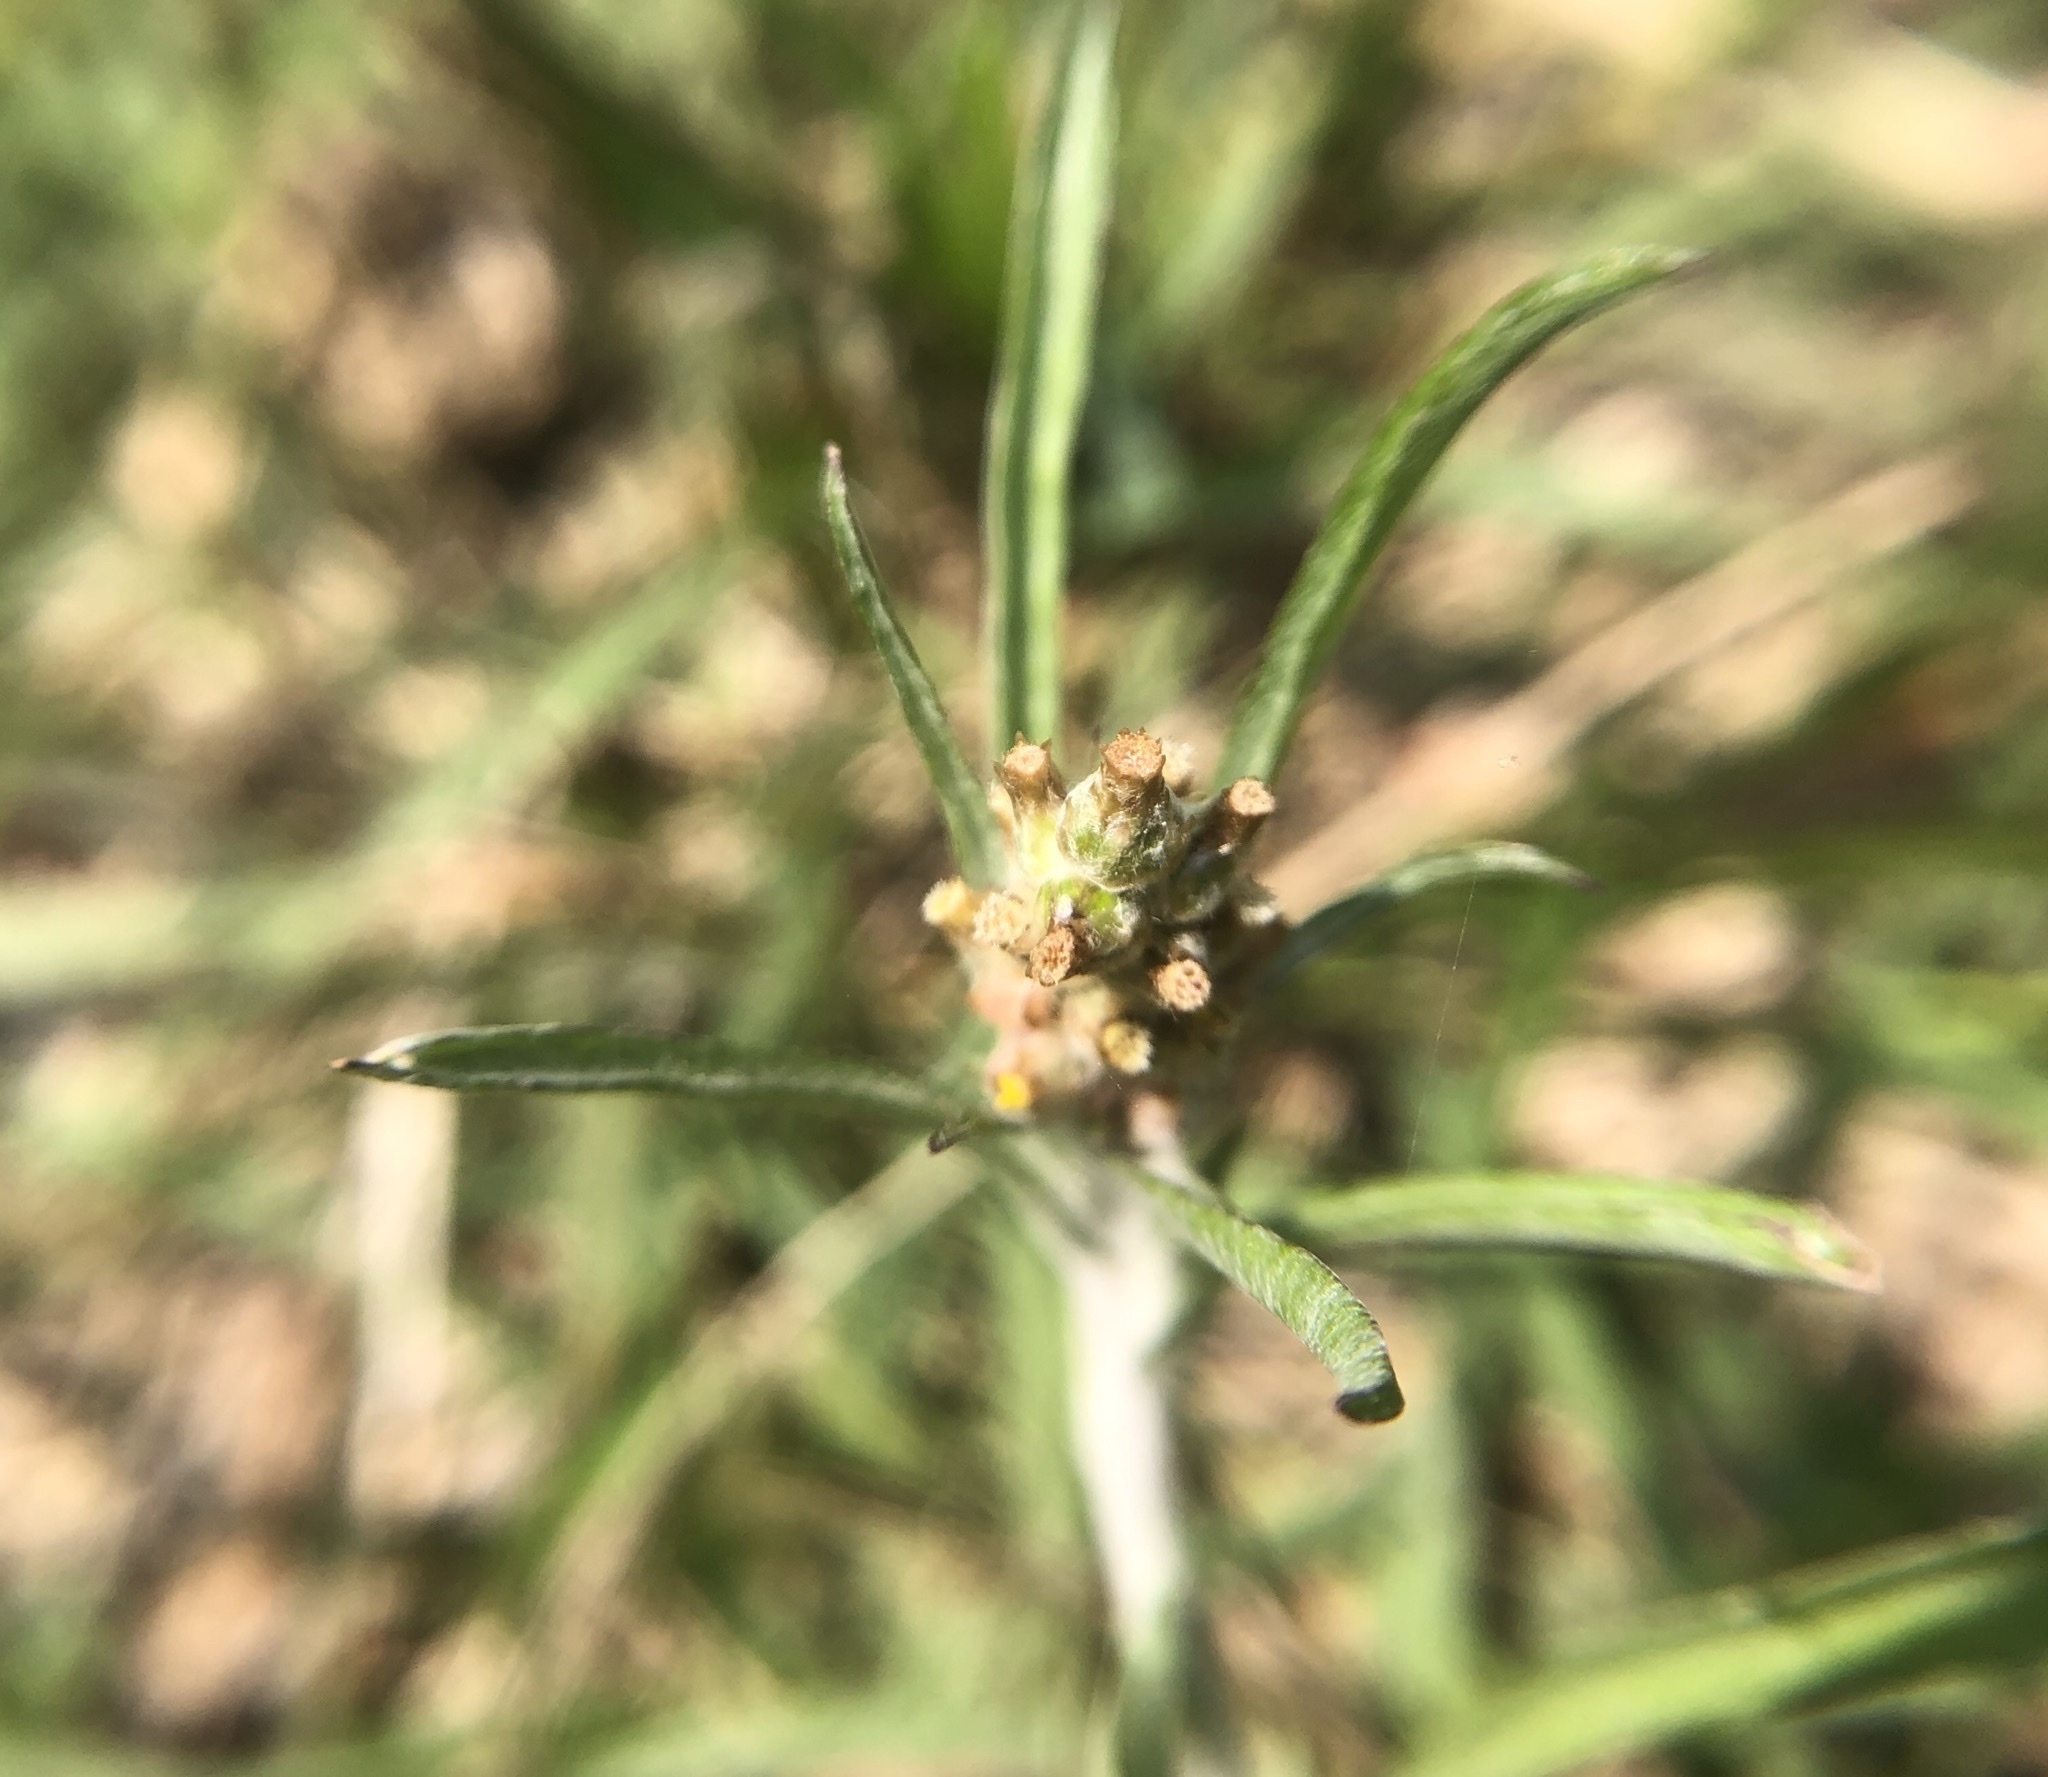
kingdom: Plantae
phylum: Tracheophyta
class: Magnoliopsida
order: Asterales
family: Asteraceae
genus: Gamochaeta
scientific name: Gamochaeta calviceps
